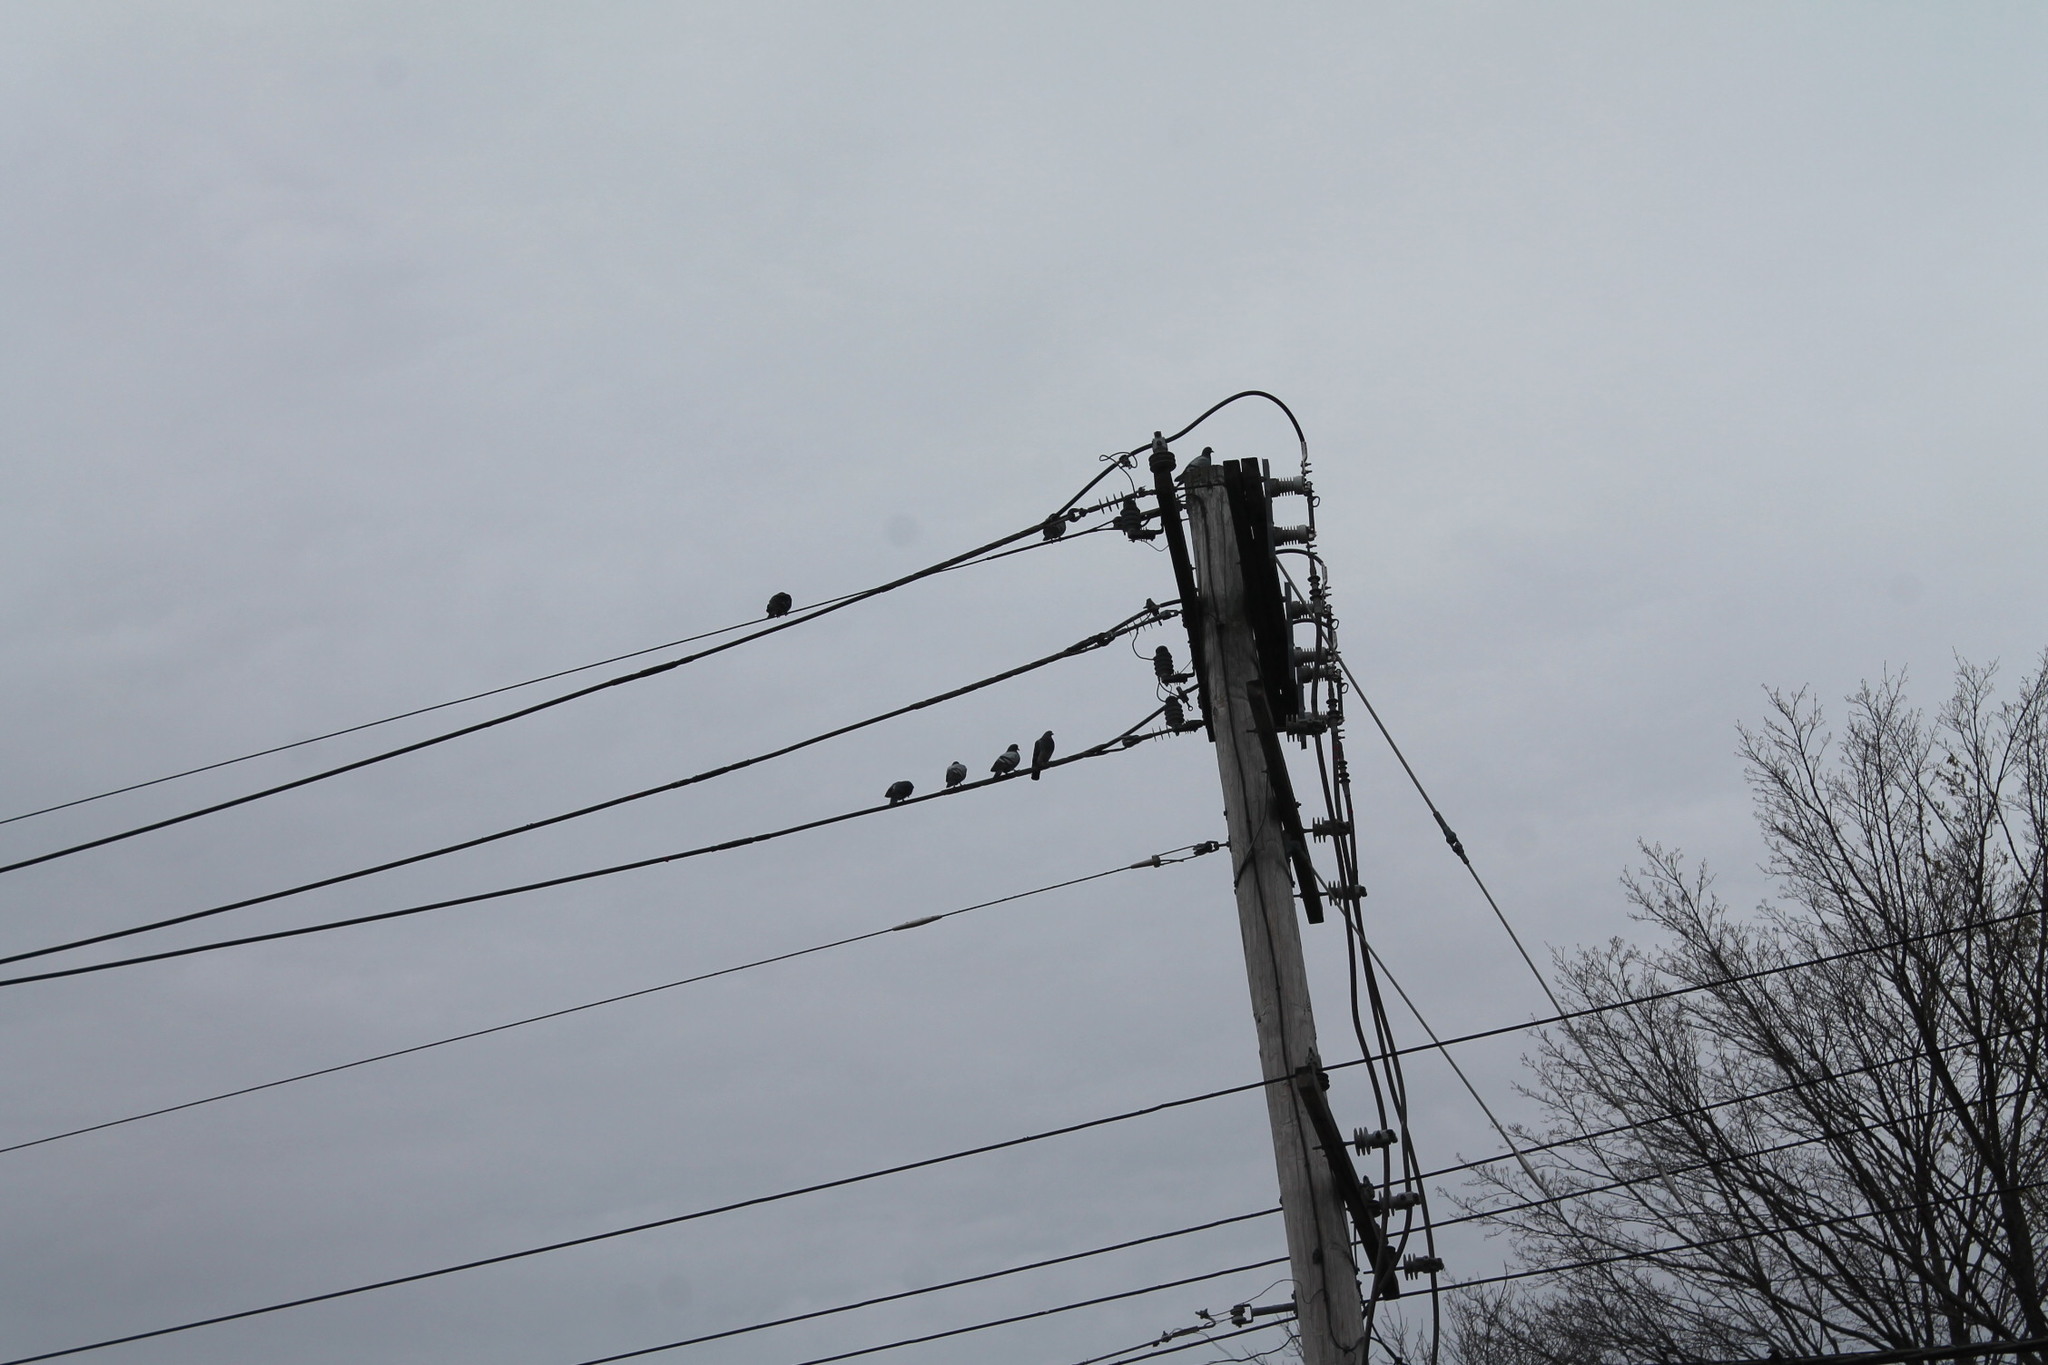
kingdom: Animalia
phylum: Chordata
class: Aves
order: Columbiformes
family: Columbidae
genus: Columba
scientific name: Columba livia
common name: Rock pigeon
